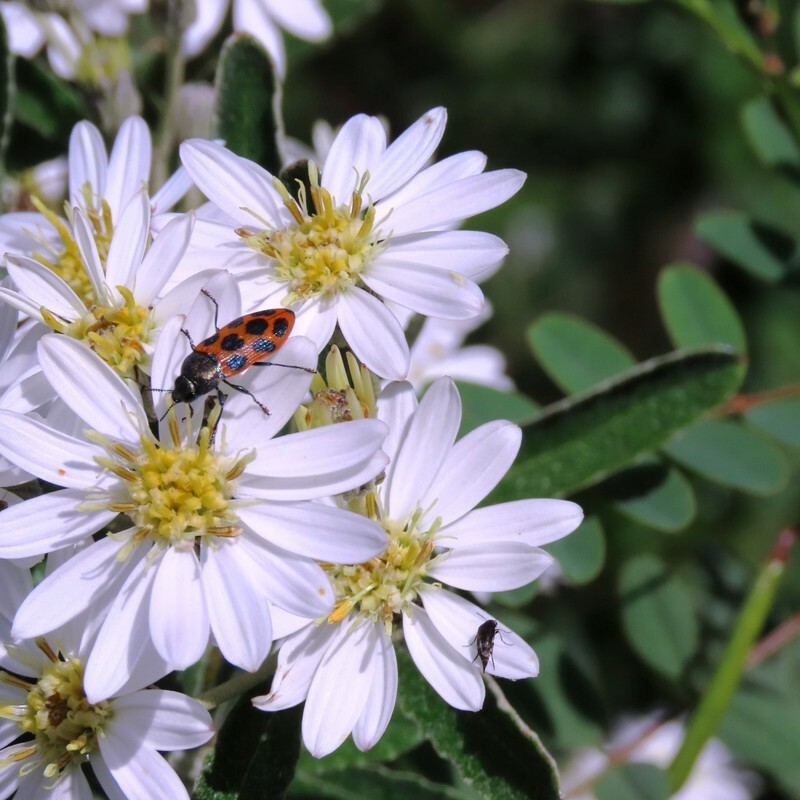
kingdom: Animalia
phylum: Arthropoda
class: Insecta
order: Coleoptera
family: Buprestidae
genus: Castiarina
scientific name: Castiarina octomaculata
